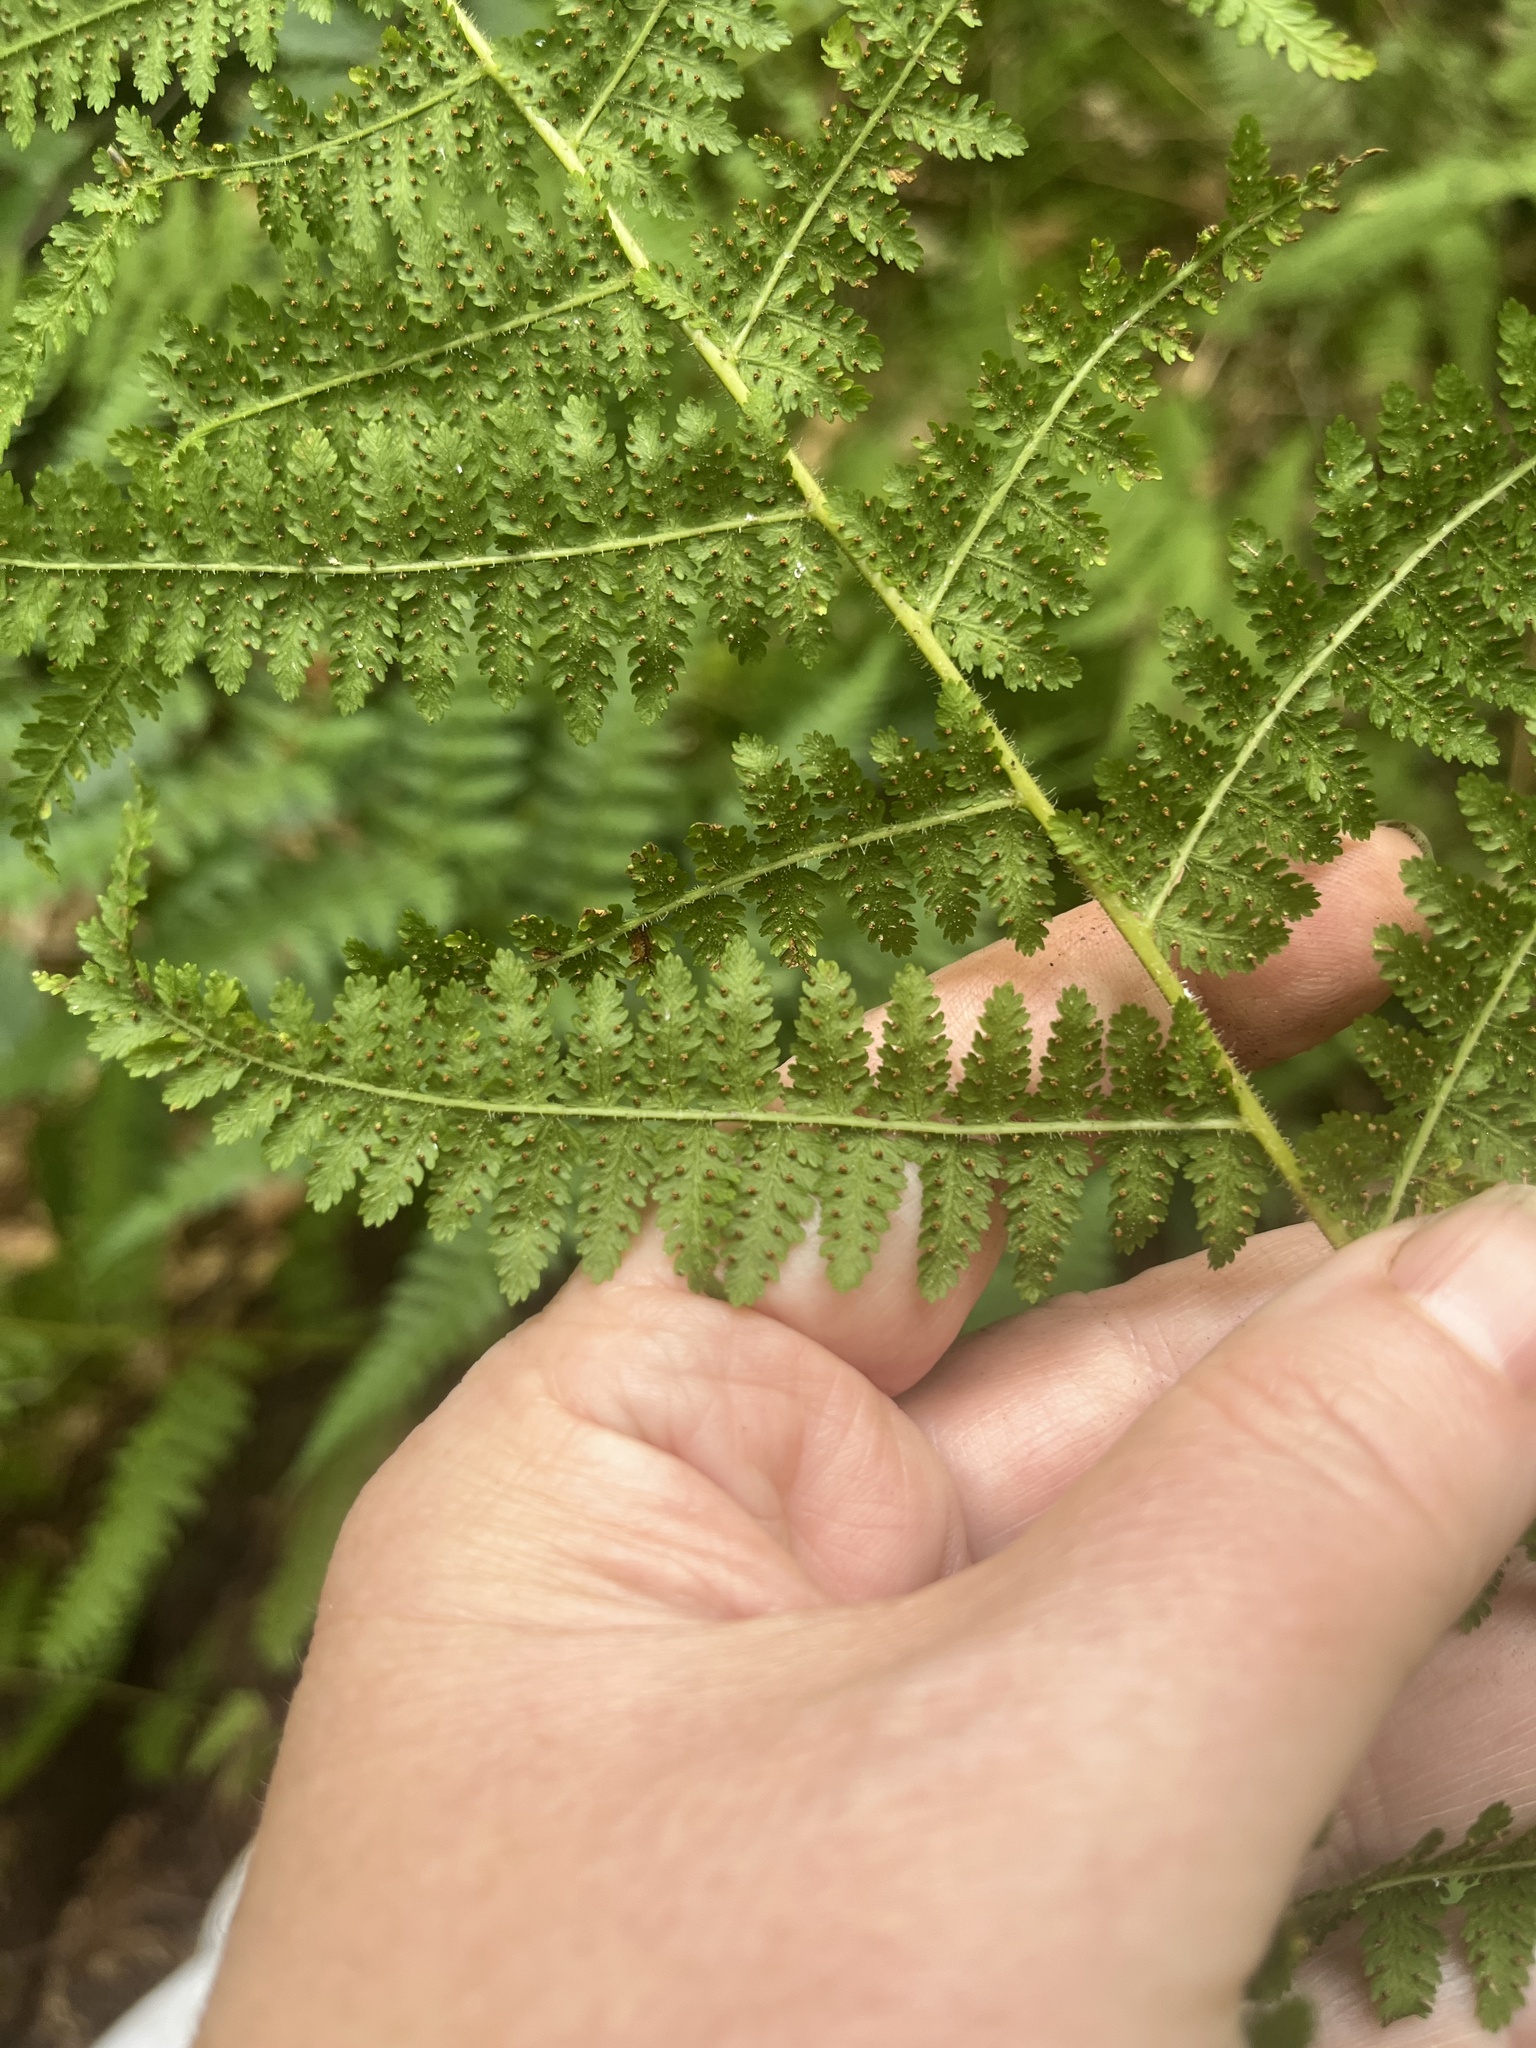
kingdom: Plantae
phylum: Tracheophyta
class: Polypodiopsida
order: Polypodiales
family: Dennstaedtiaceae
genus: Sitobolium
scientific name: Sitobolium punctilobum
